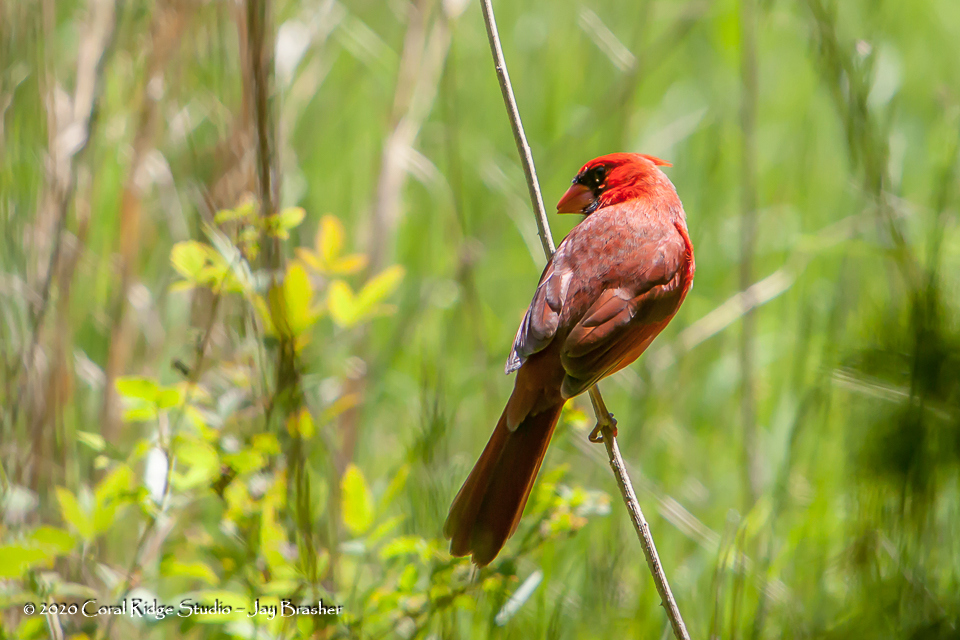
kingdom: Animalia
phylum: Chordata
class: Aves
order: Passeriformes
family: Cardinalidae
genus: Cardinalis
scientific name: Cardinalis cardinalis
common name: Northern cardinal
